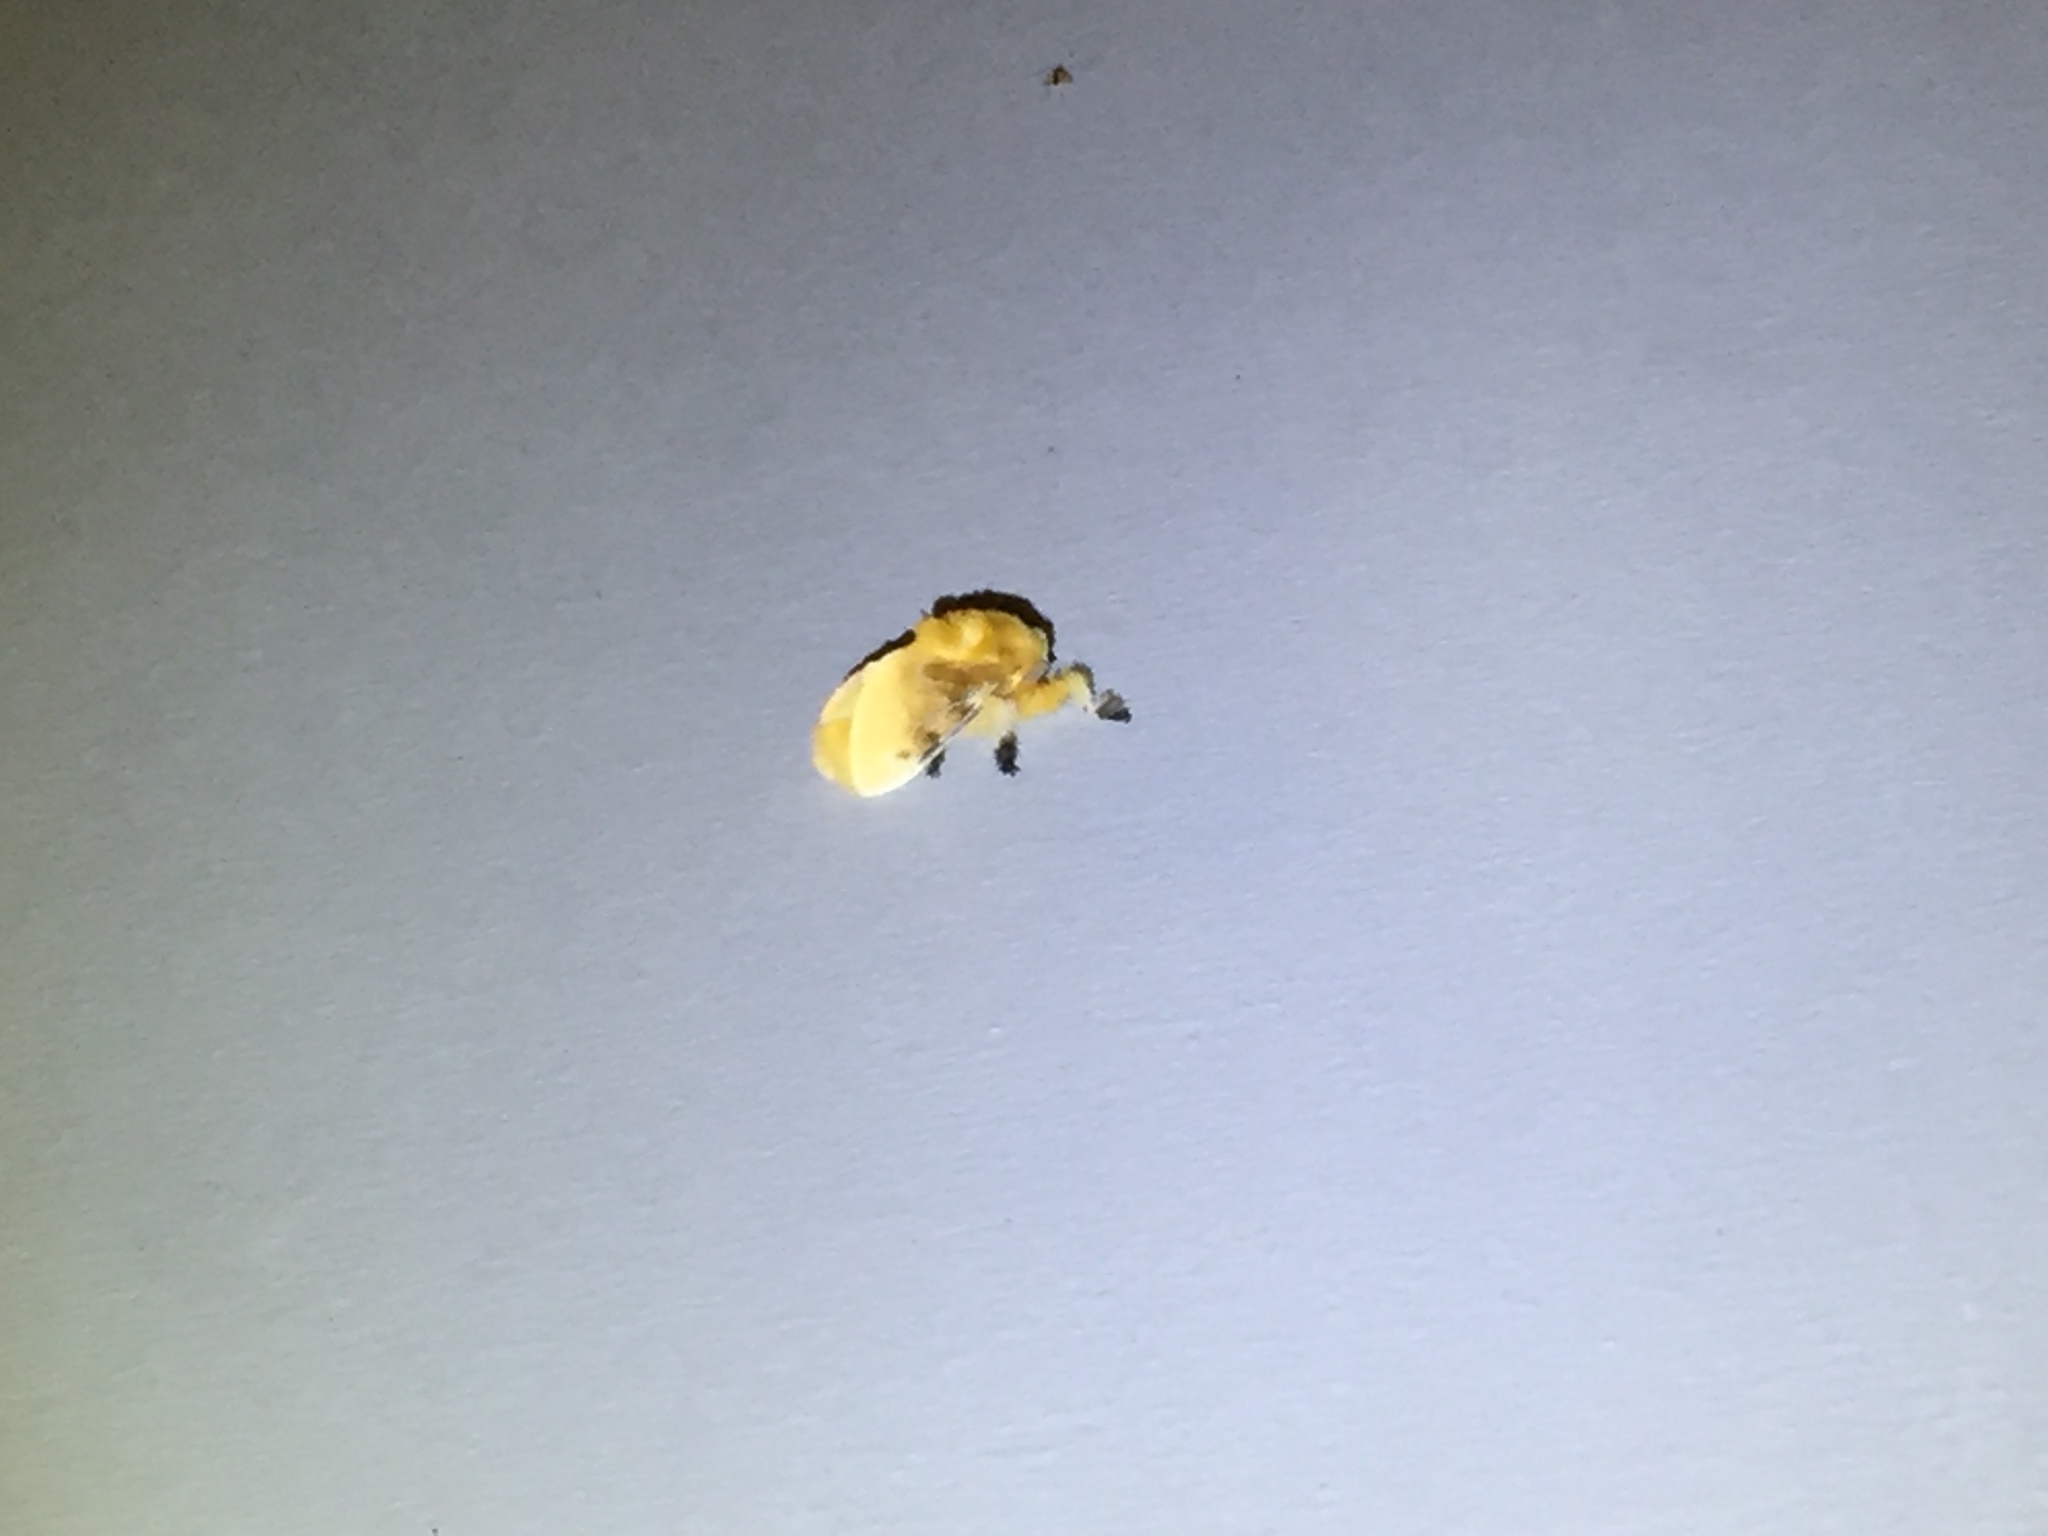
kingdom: Animalia
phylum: Arthropoda
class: Insecta
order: Lepidoptera
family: Megalopygidae
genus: Megalopyge
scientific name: Megalopyge opercularis
